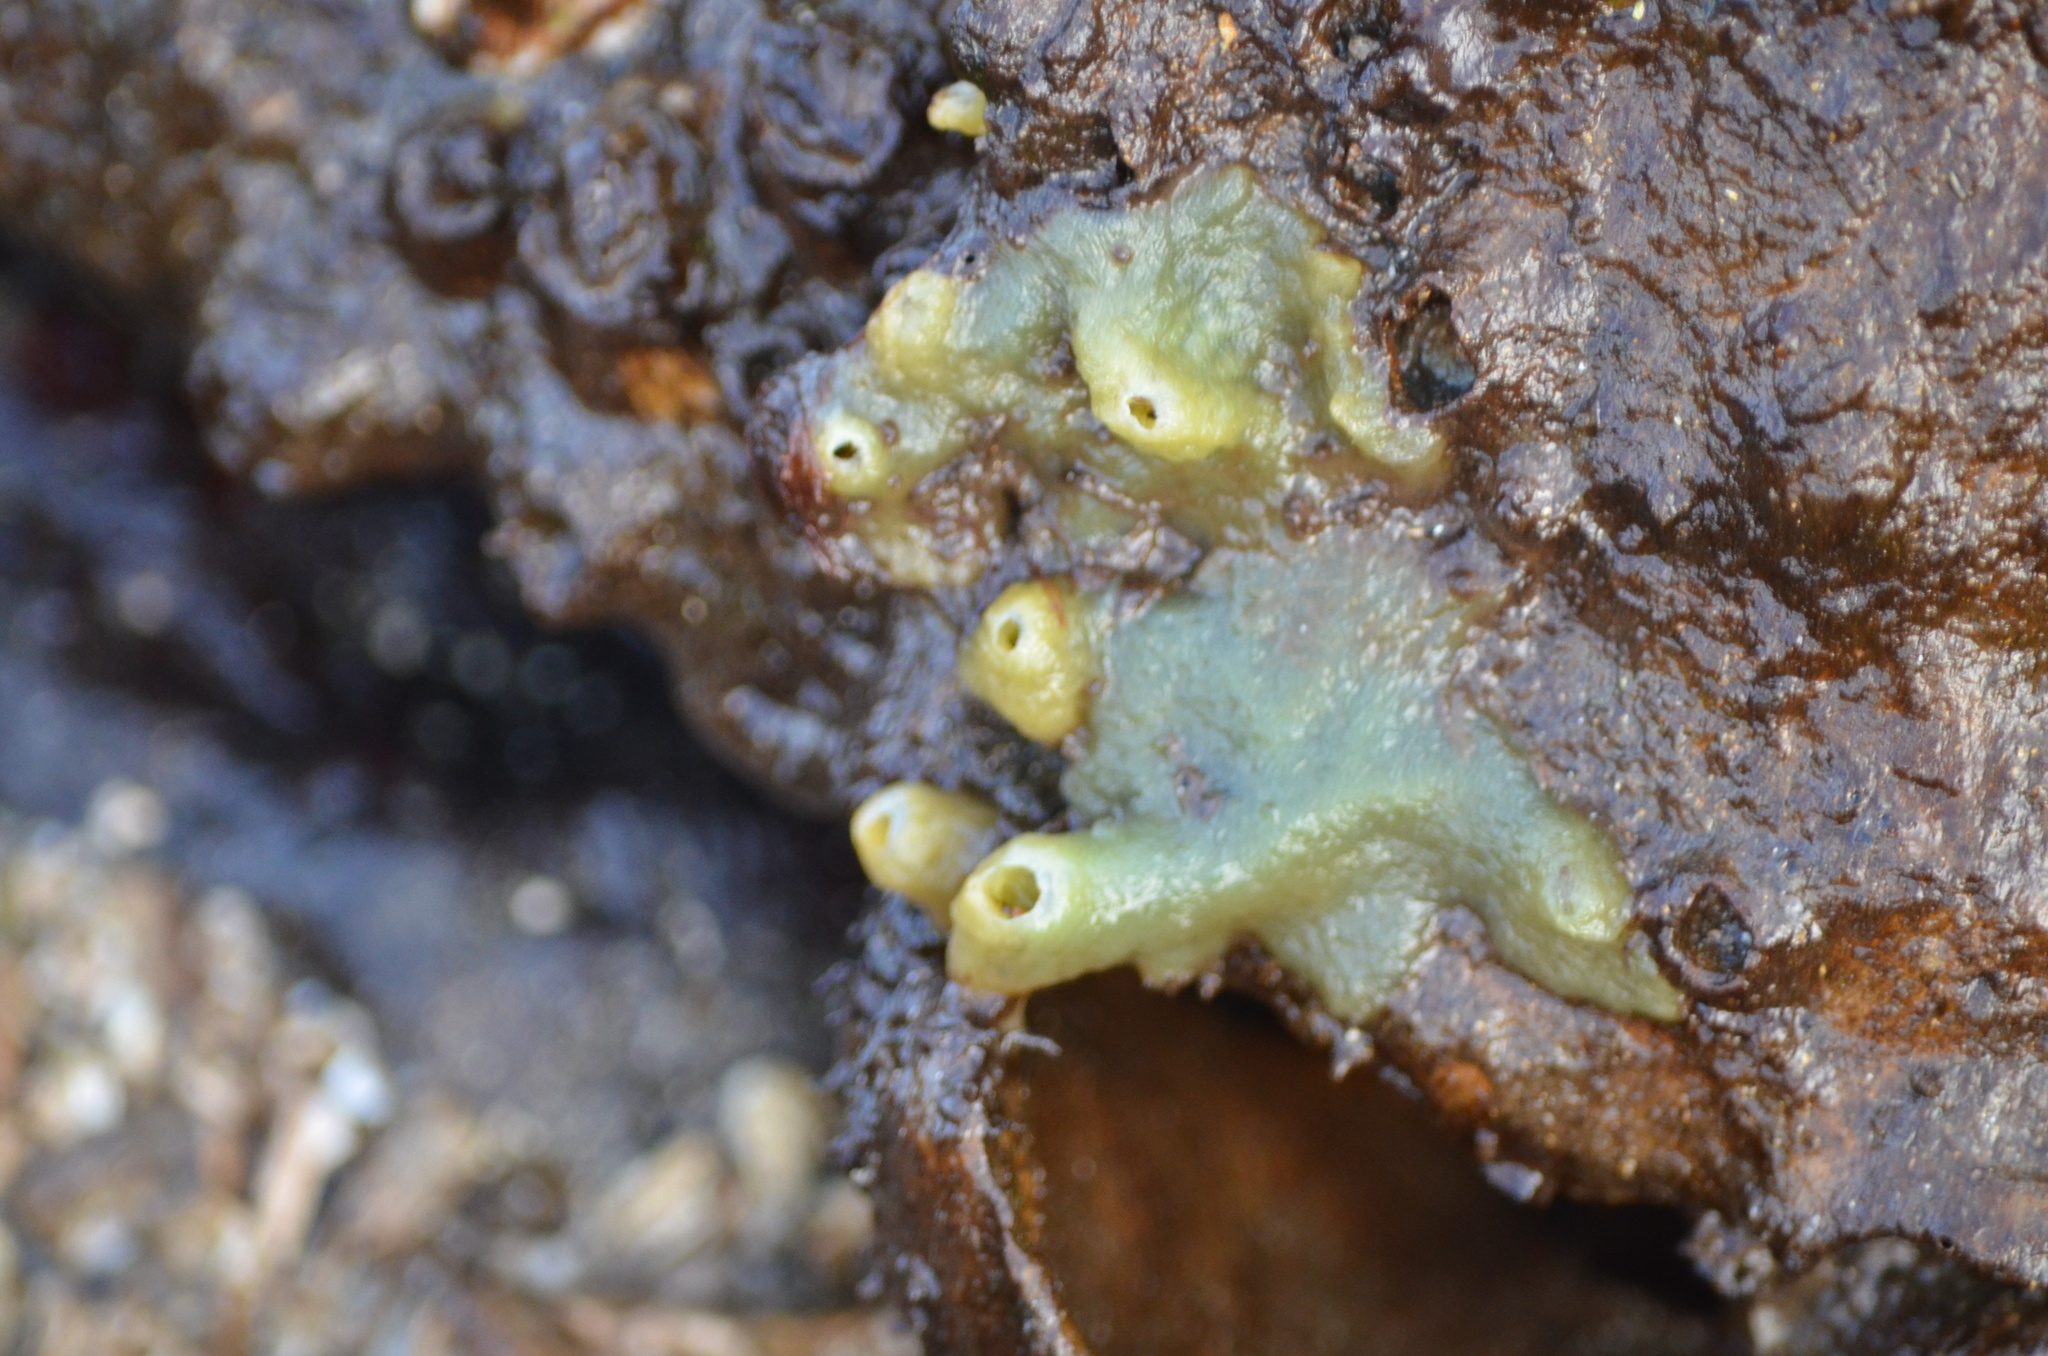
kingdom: Animalia
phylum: Porifera
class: Demospongiae
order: Suberitida
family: Halichondriidae
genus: Halichondria
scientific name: Halichondria panicea
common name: Breadcrumb sponge
